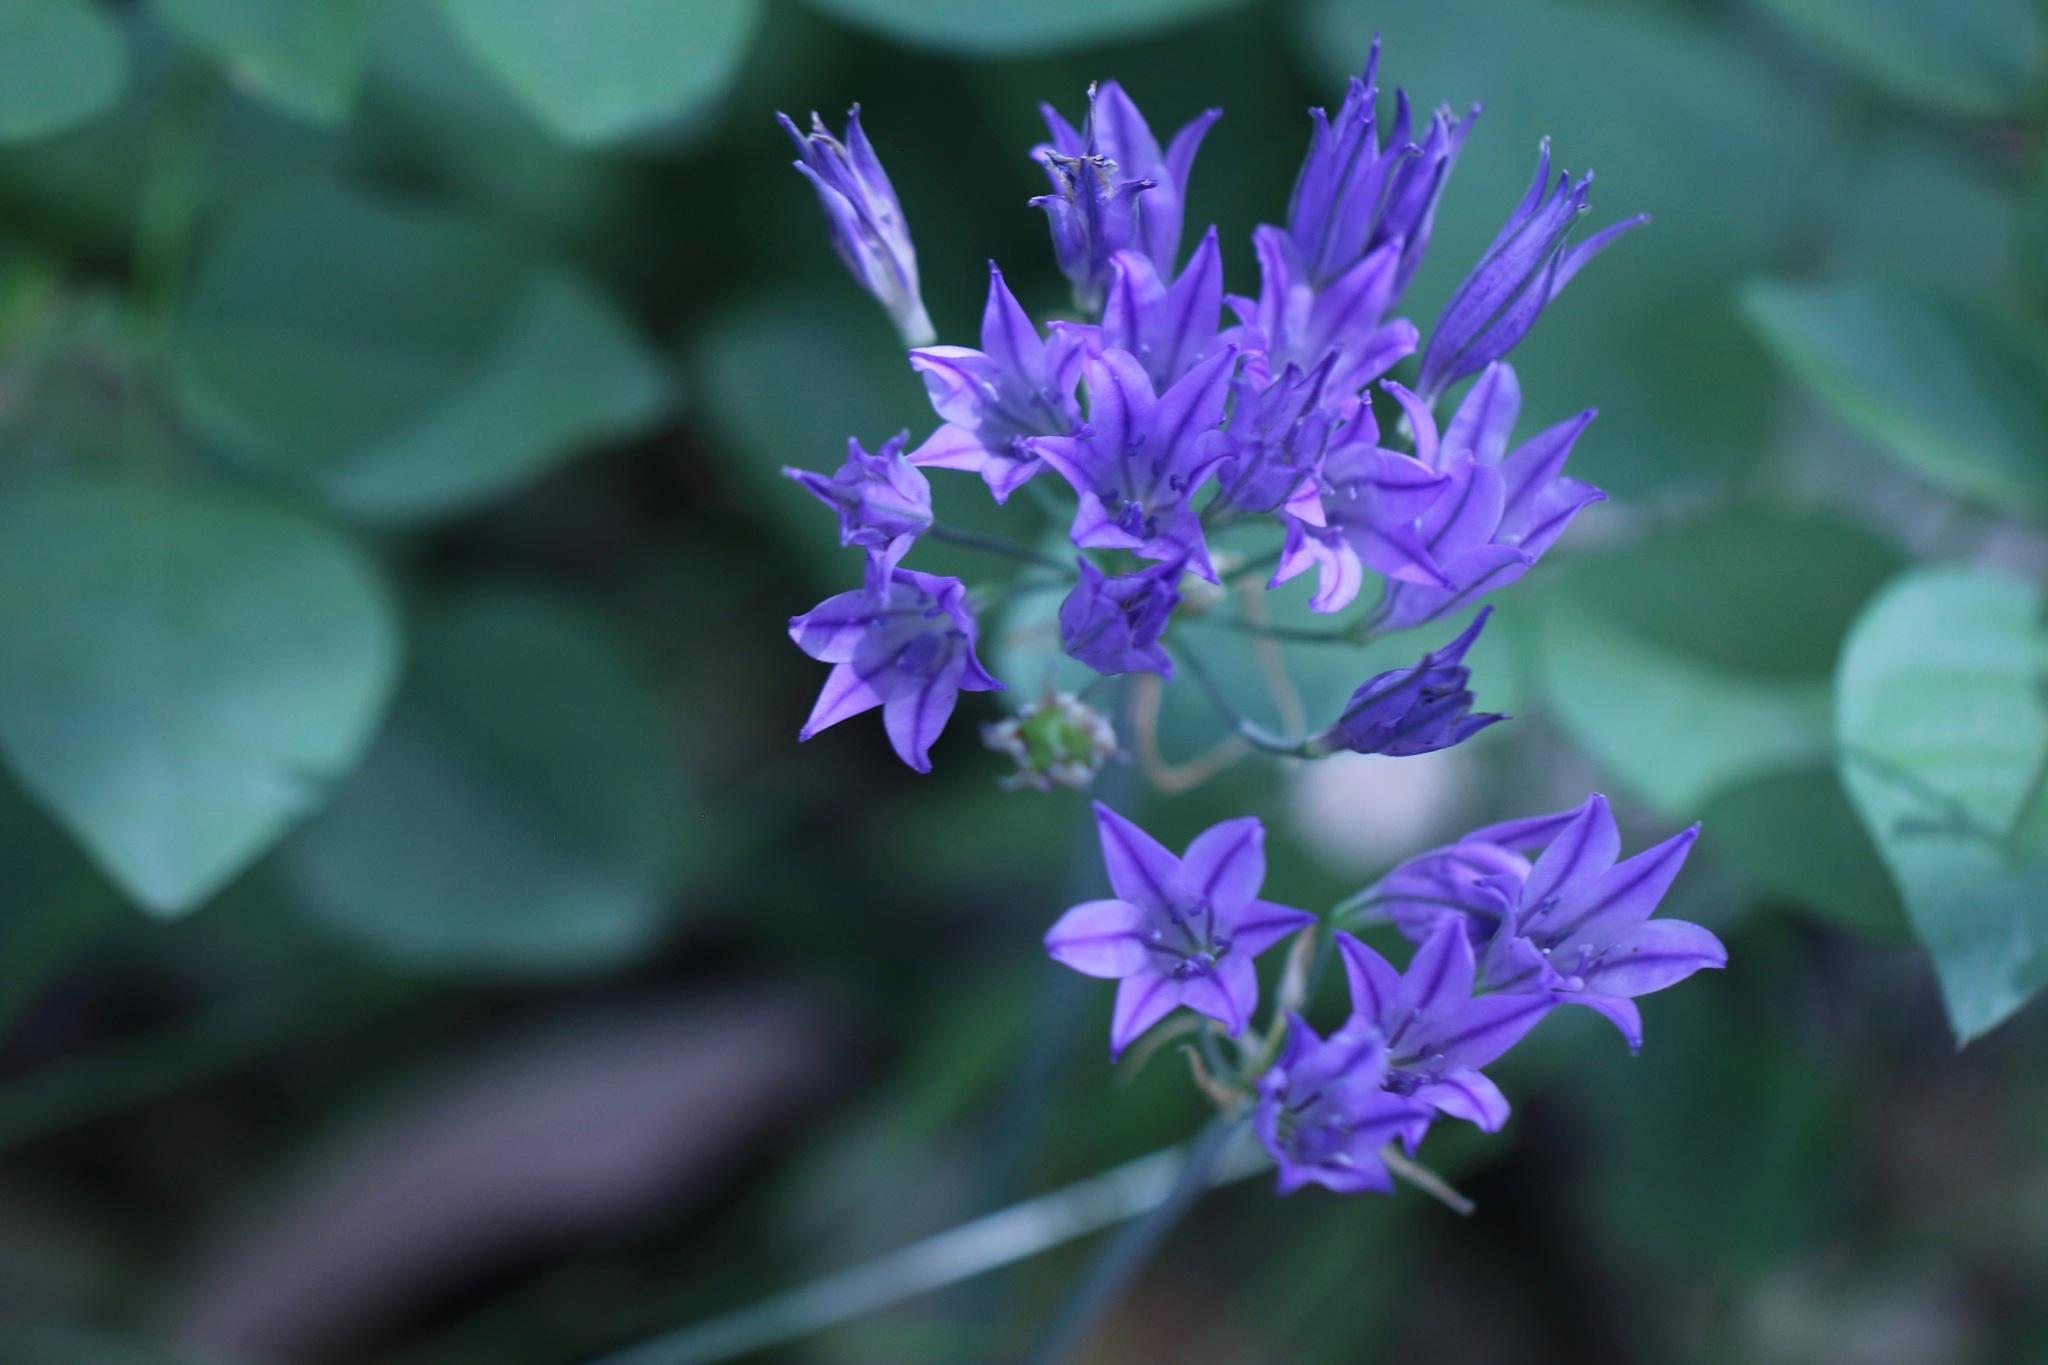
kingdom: Plantae
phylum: Tracheophyta
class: Liliopsida
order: Asparagales
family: Asparagaceae
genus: Triteleia
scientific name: Triteleia laxa
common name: Triplet-lily
